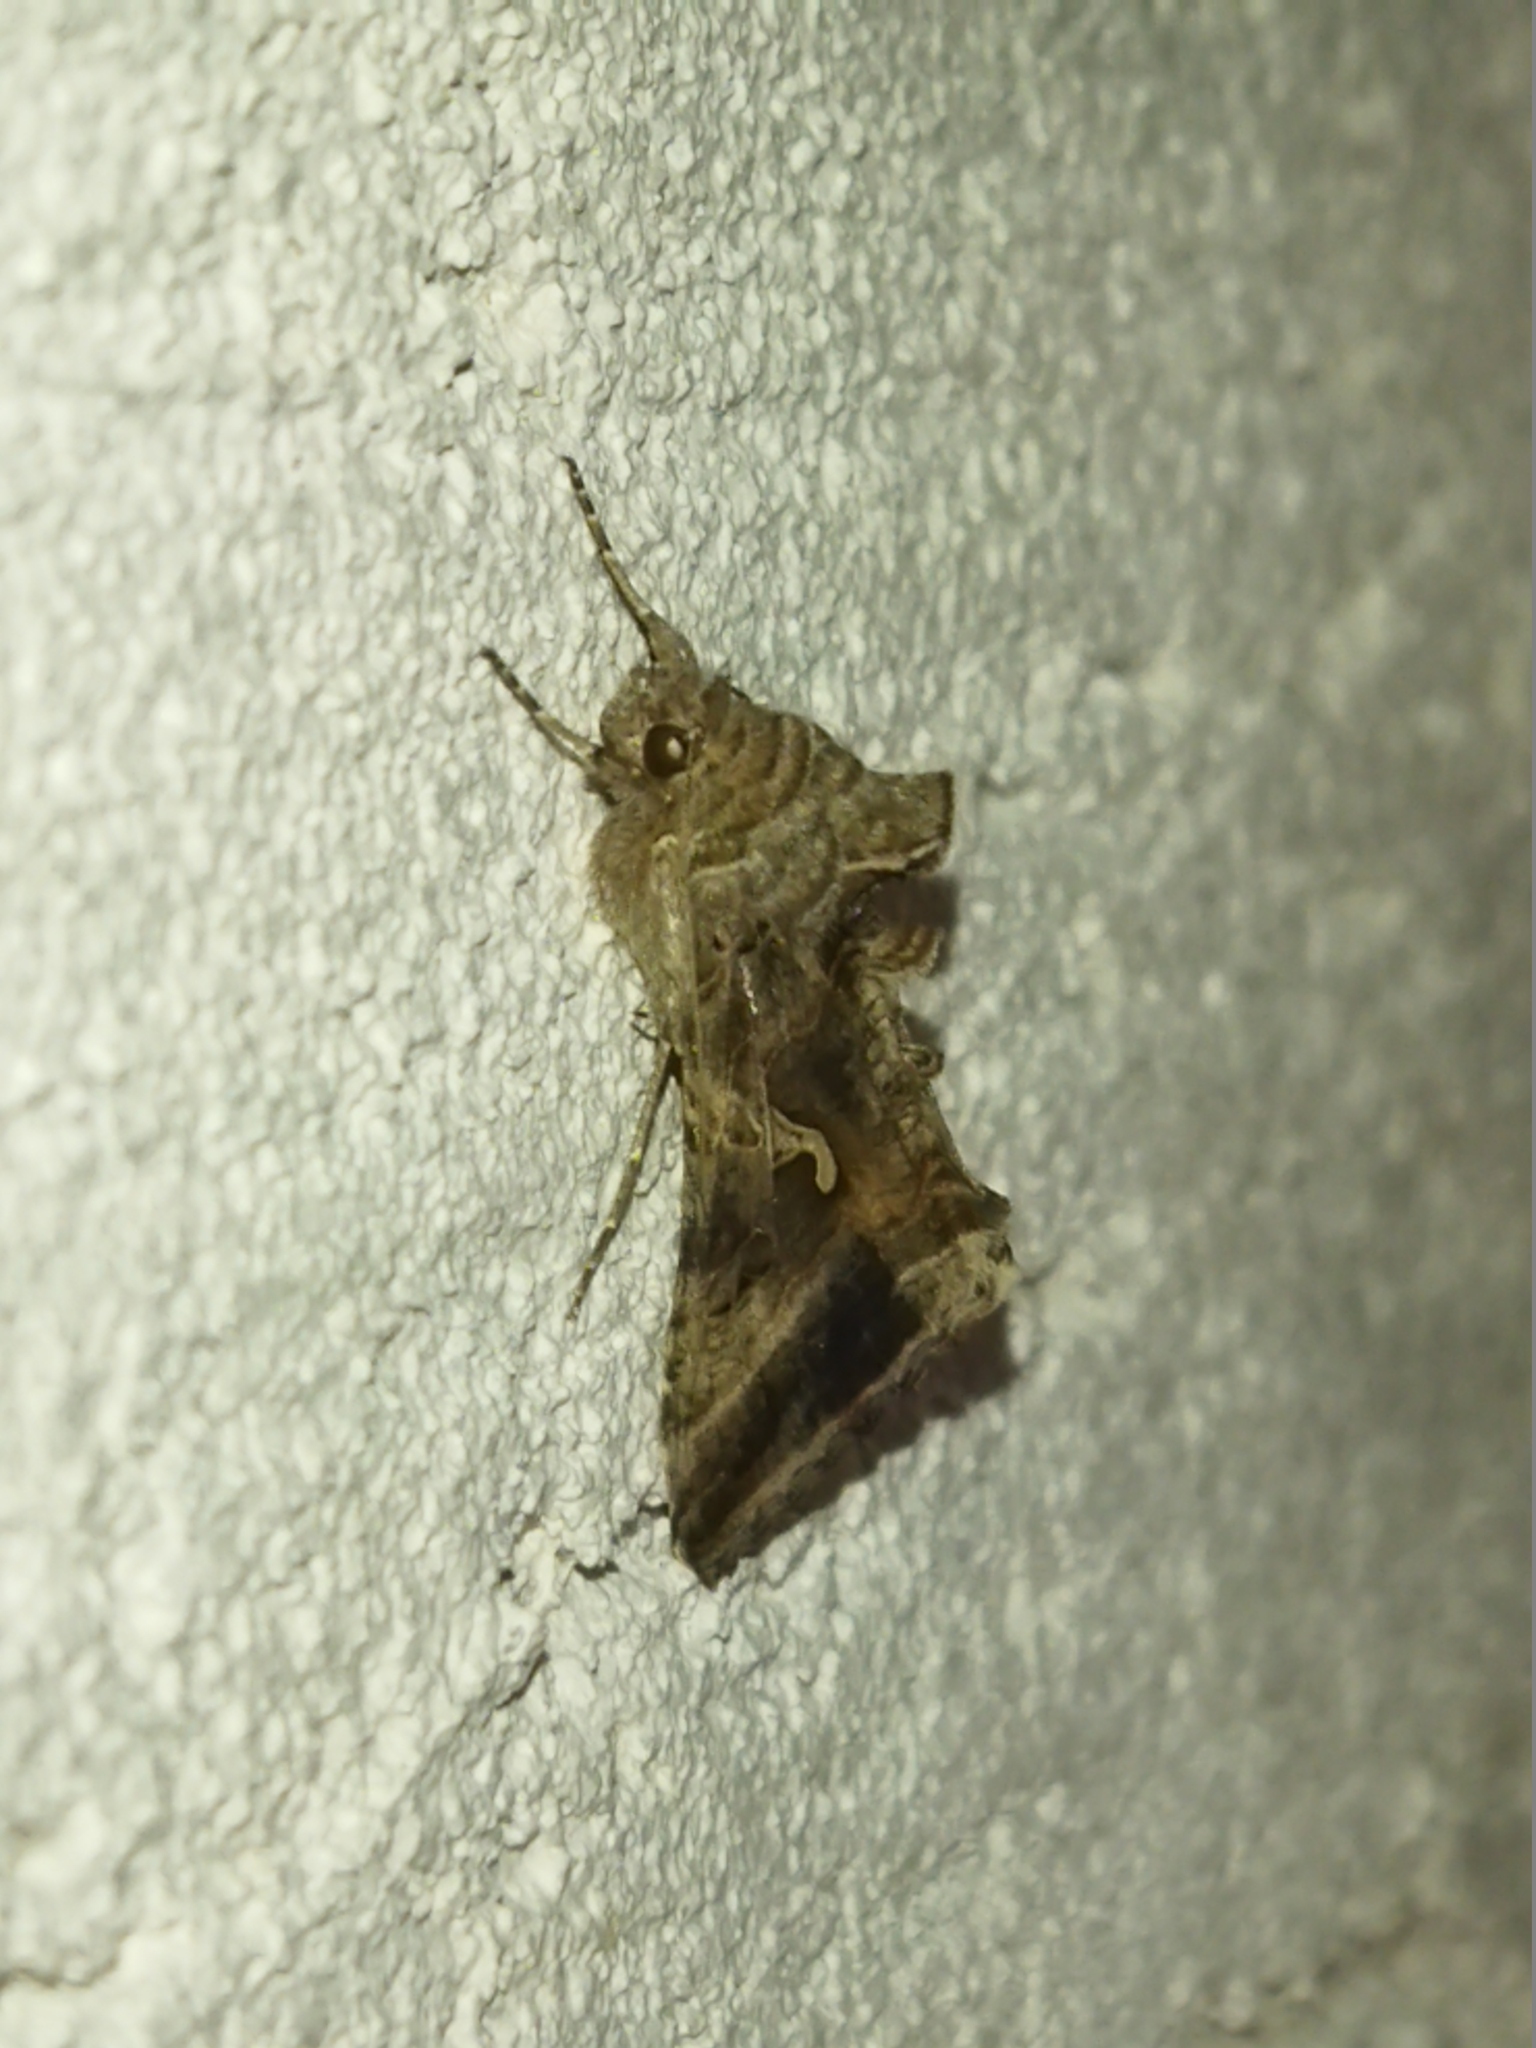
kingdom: Animalia
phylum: Arthropoda
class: Insecta
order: Lepidoptera
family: Noctuidae
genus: Autographa
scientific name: Autographa gamma
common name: Silver y
